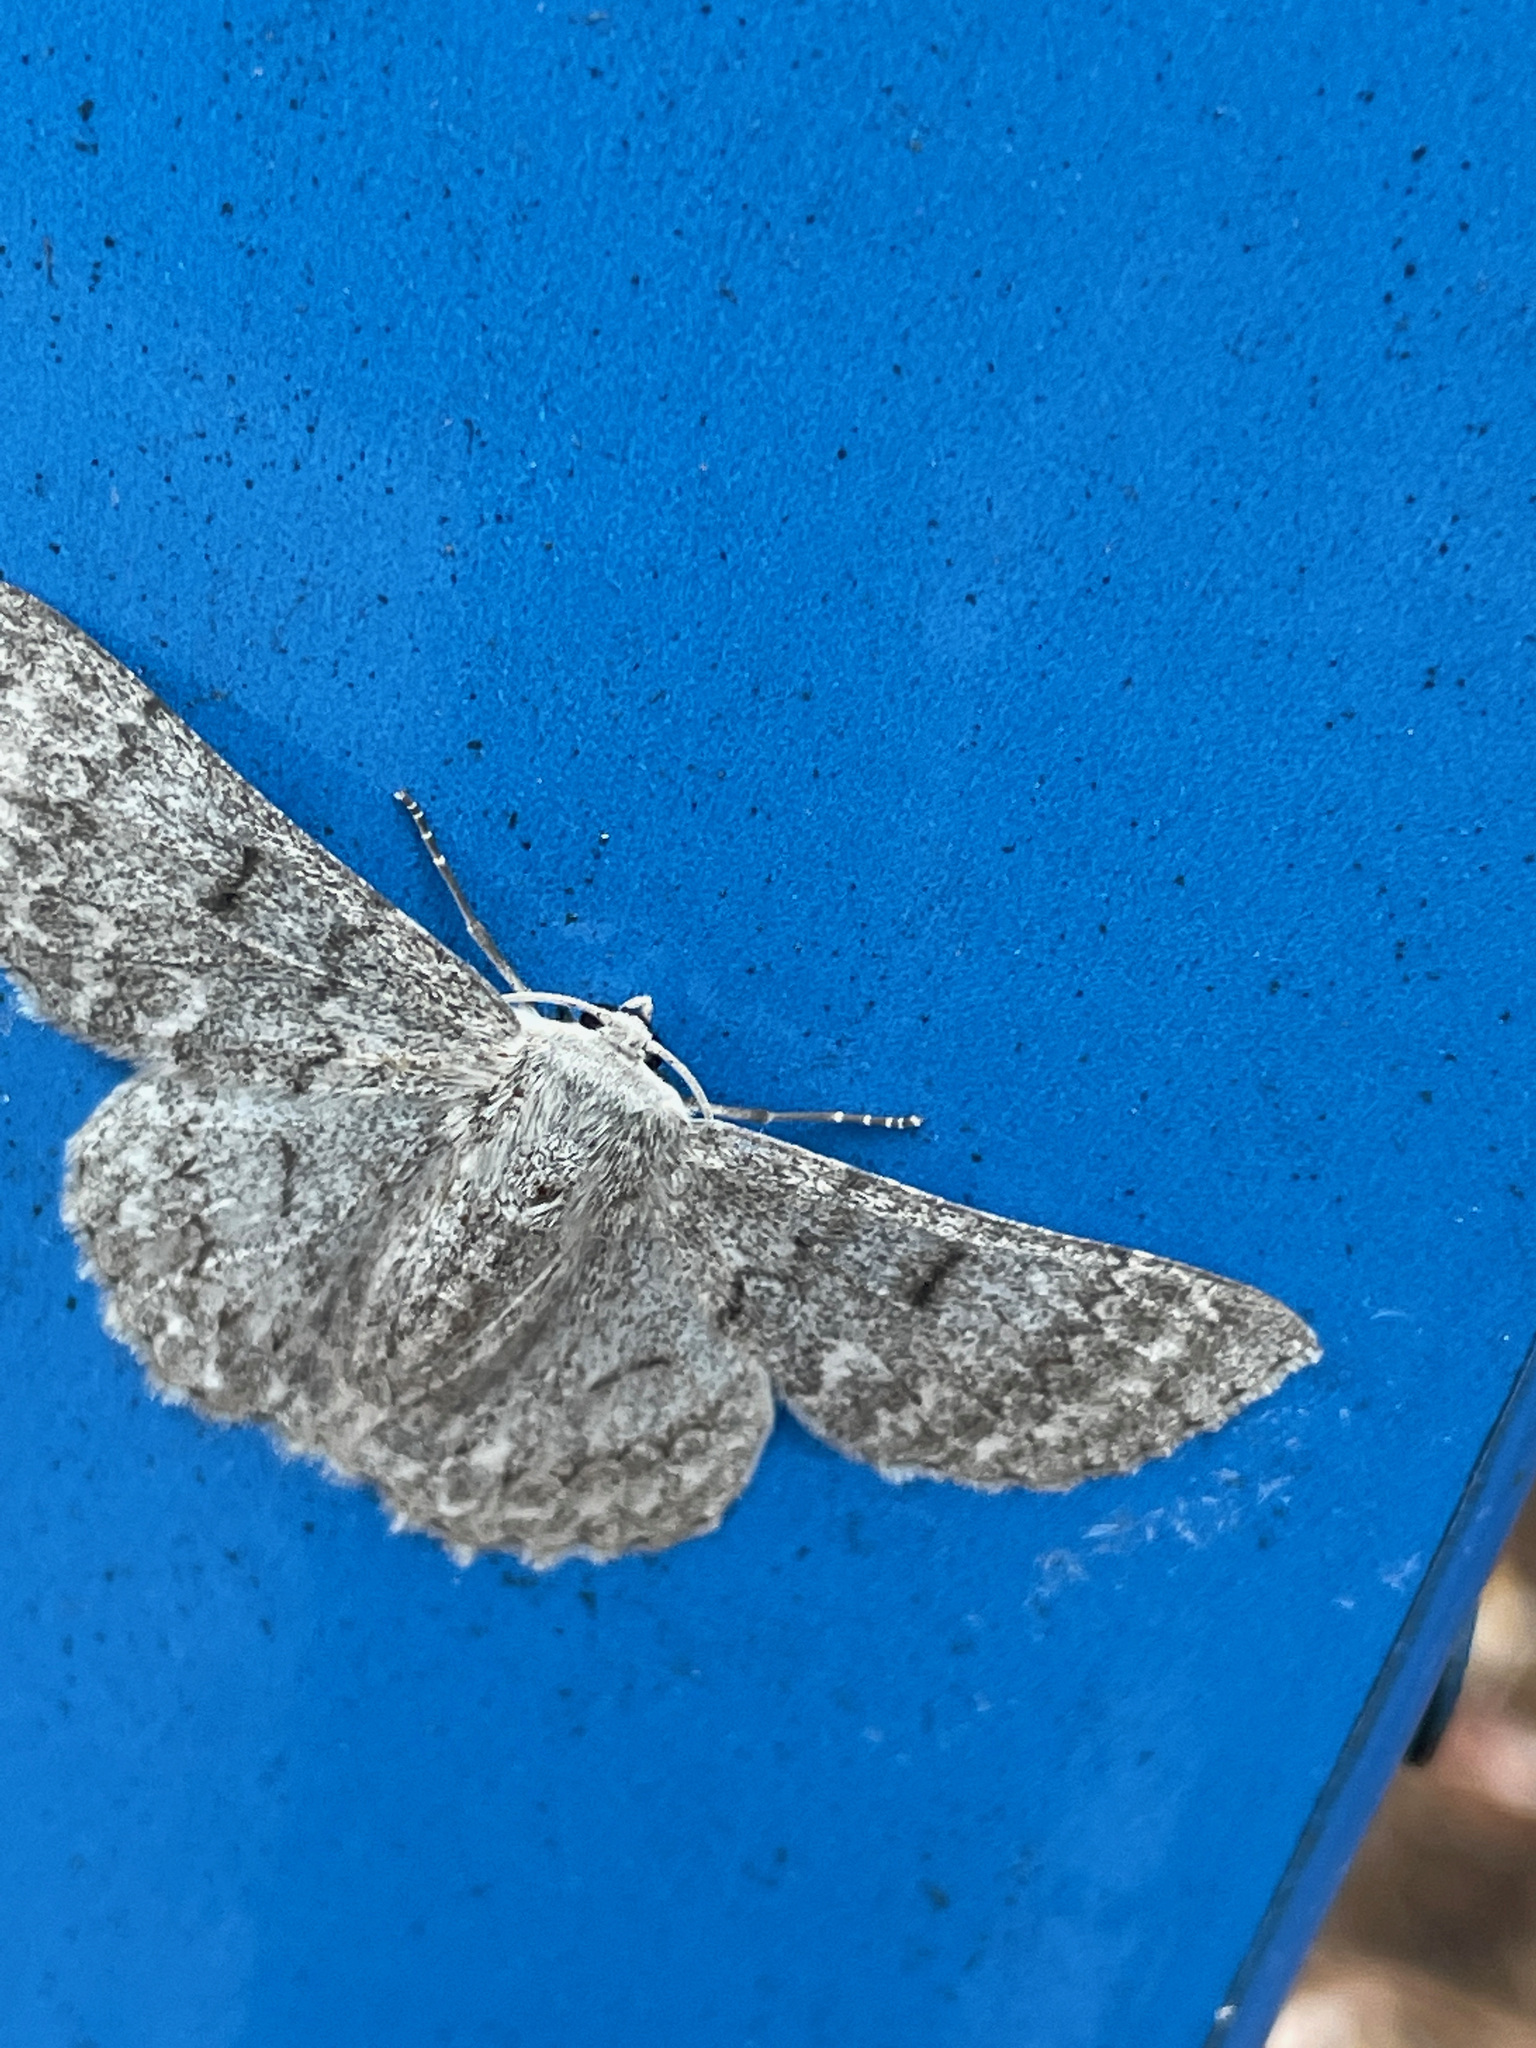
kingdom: Animalia
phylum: Arthropoda
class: Insecta
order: Lepidoptera
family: Geometridae
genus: Crypsiphona
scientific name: Crypsiphona ocultaria
